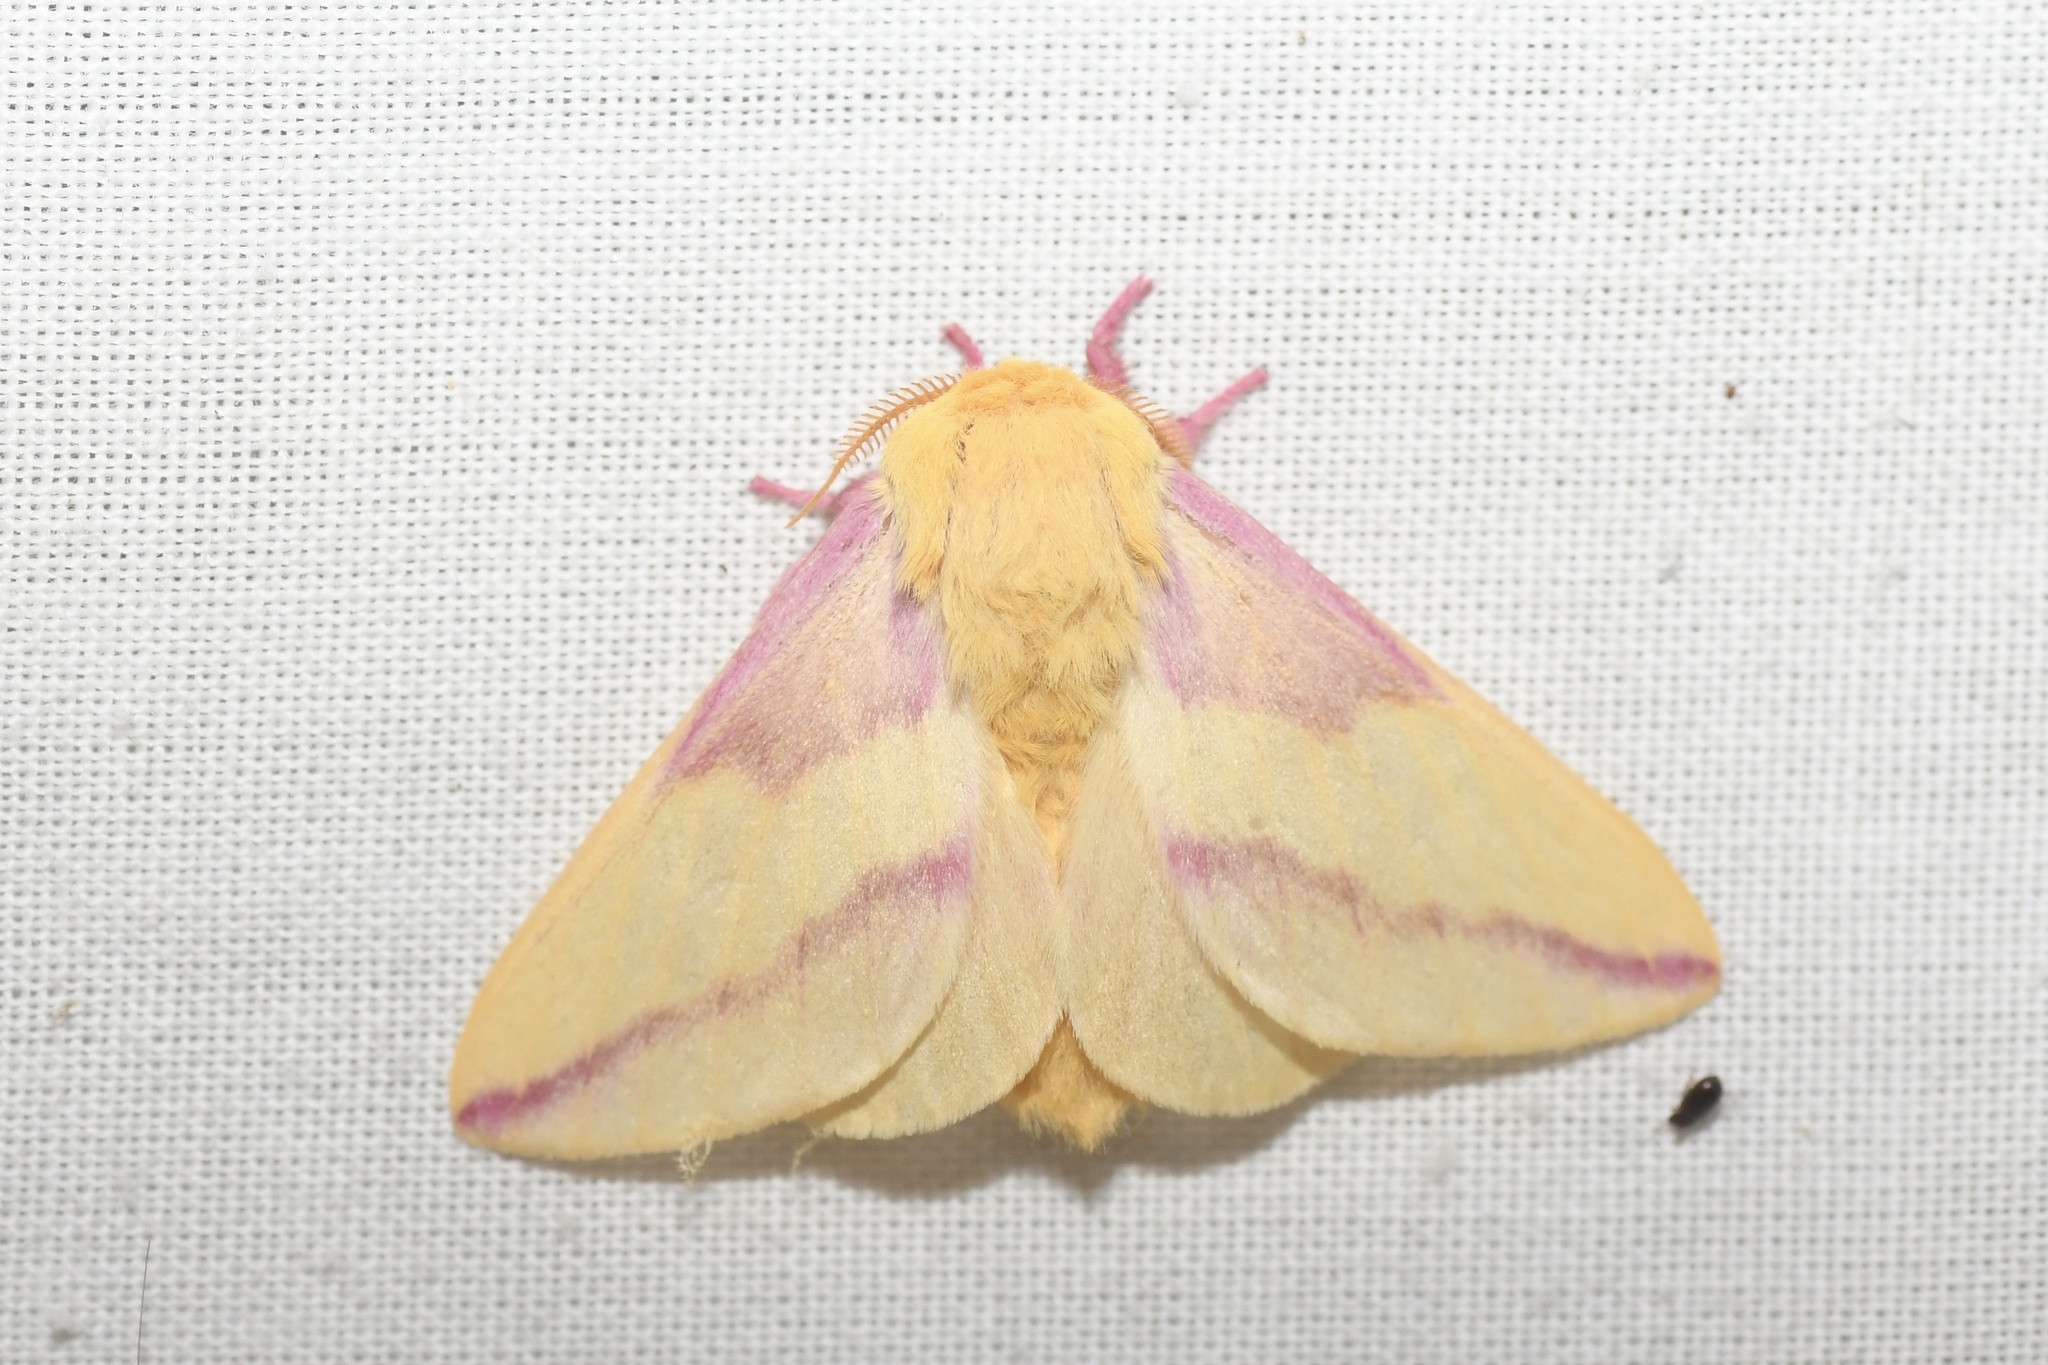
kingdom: Animalia
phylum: Arthropoda
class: Insecta
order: Lepidoptera
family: Saturniidae
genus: Dryocampa
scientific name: Dryocampa rubicunda
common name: Rosy maple moth
